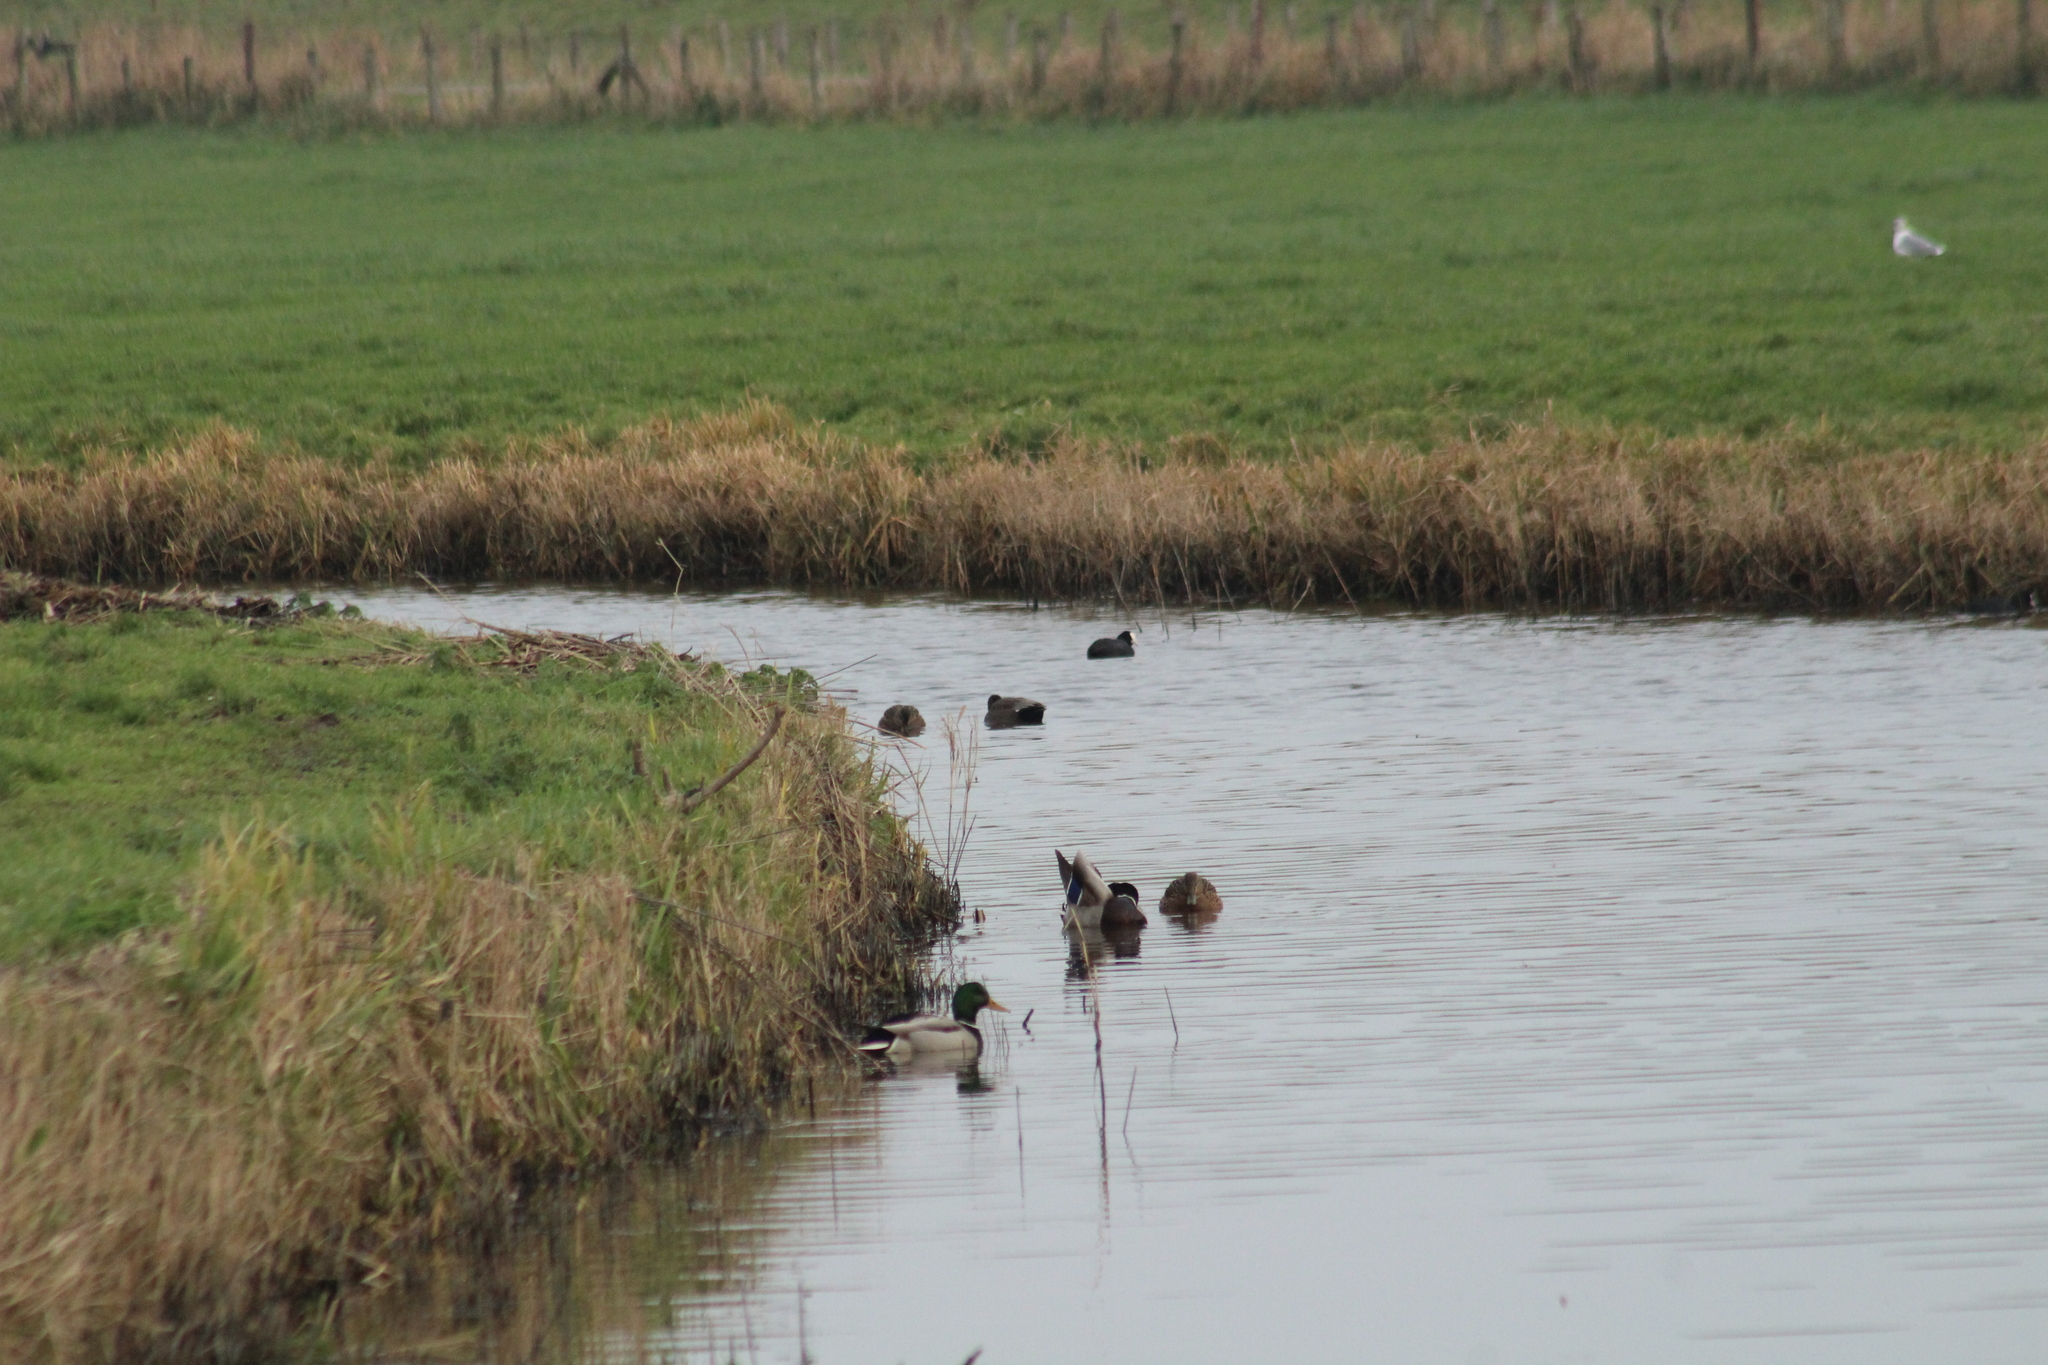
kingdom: Animalia
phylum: Chordata
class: Aves
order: Anseriformes
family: Anatidae
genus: Mareca
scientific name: Mareca strepera
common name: Gadwall
